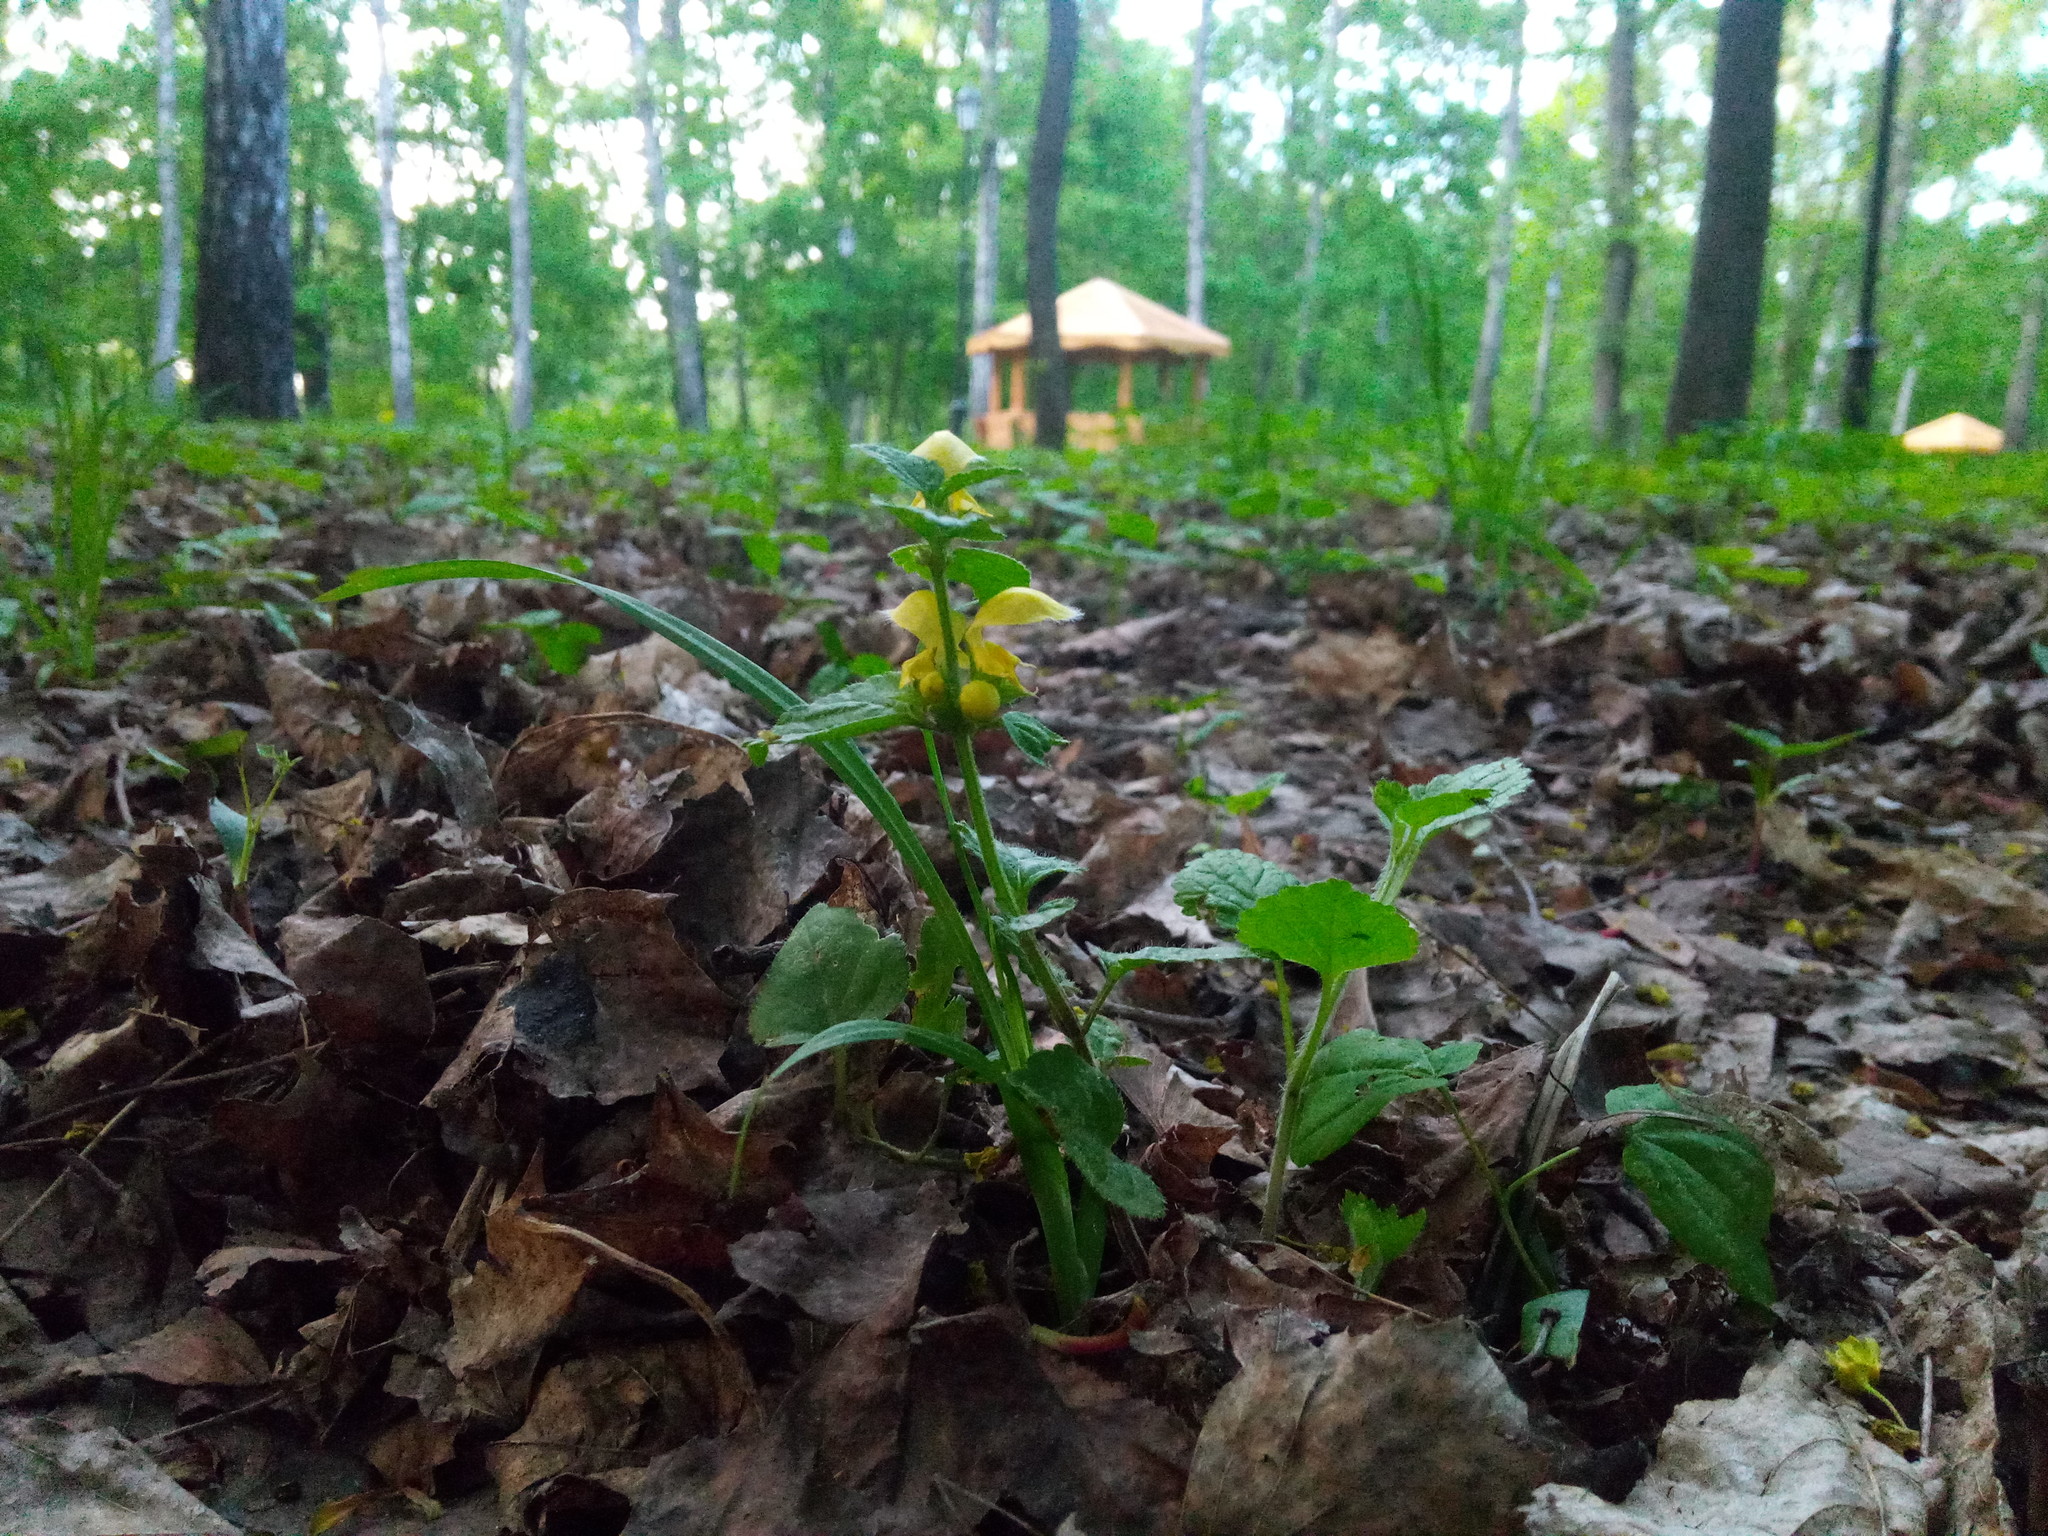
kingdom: Plantae
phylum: Tracheophyta
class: Magnoliopsida
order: Lamiales
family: Lamiaceae
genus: Lamium
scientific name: Lamium galeobdolon
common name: Yellow archangel
